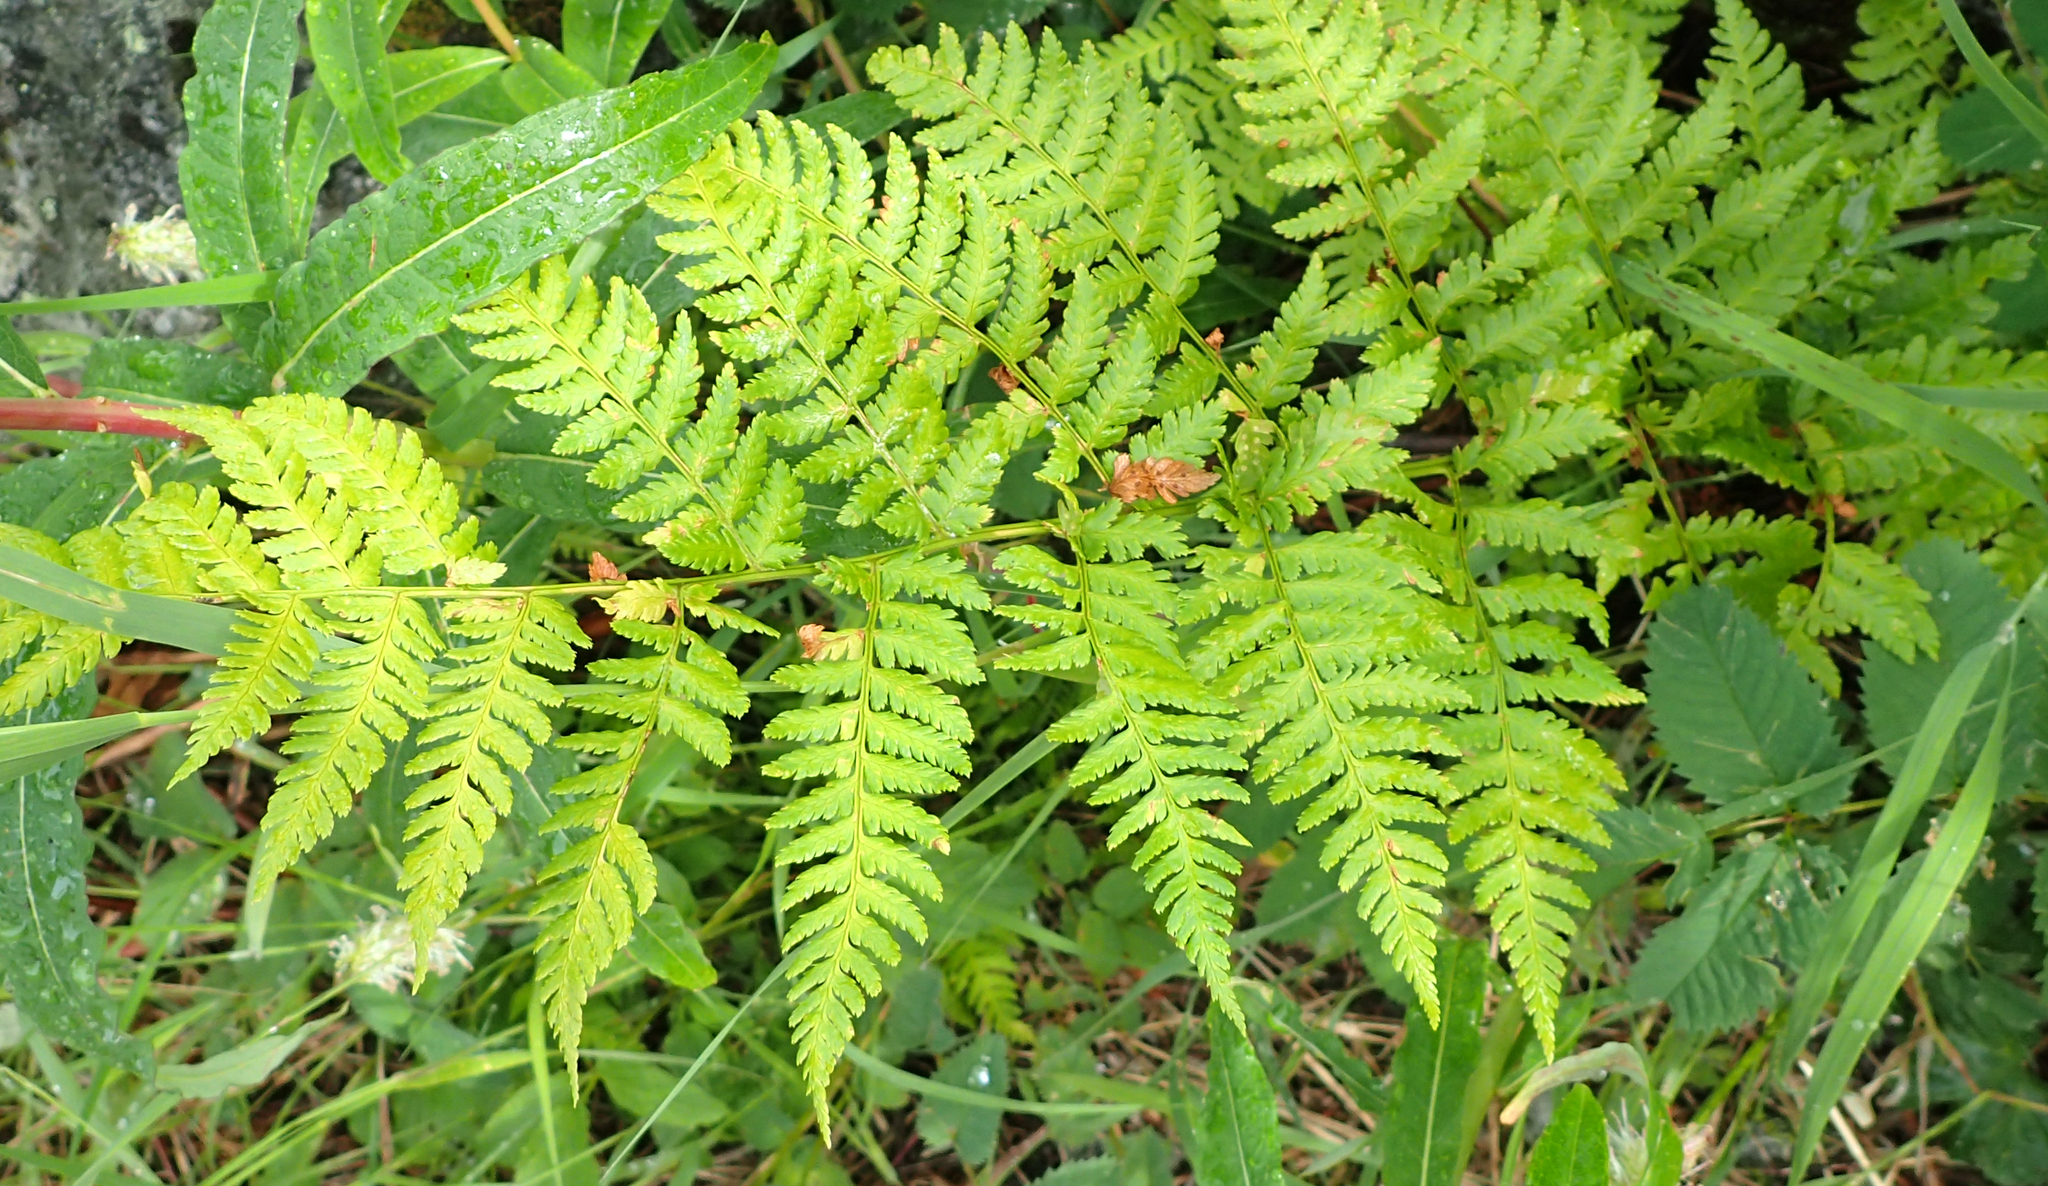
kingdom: Plantae
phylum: Tracheophyta
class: Polypodiopsida
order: Polypodiales
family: Dryopteridaceae
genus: Dryopteris
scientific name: Dryopteris expansa
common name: Northern buckler fern
